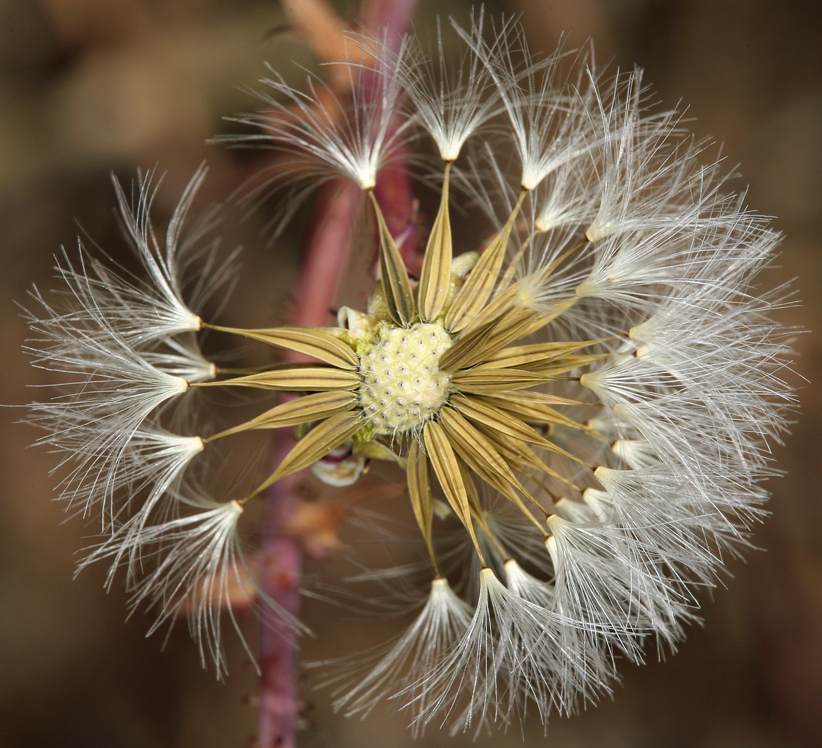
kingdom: Plantae
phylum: Tracheophyta
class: Magnoliopsida
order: Asterales
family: Asteraceae
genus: Calycoseris
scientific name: Calycoseris parryi
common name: Yellow tackstem
